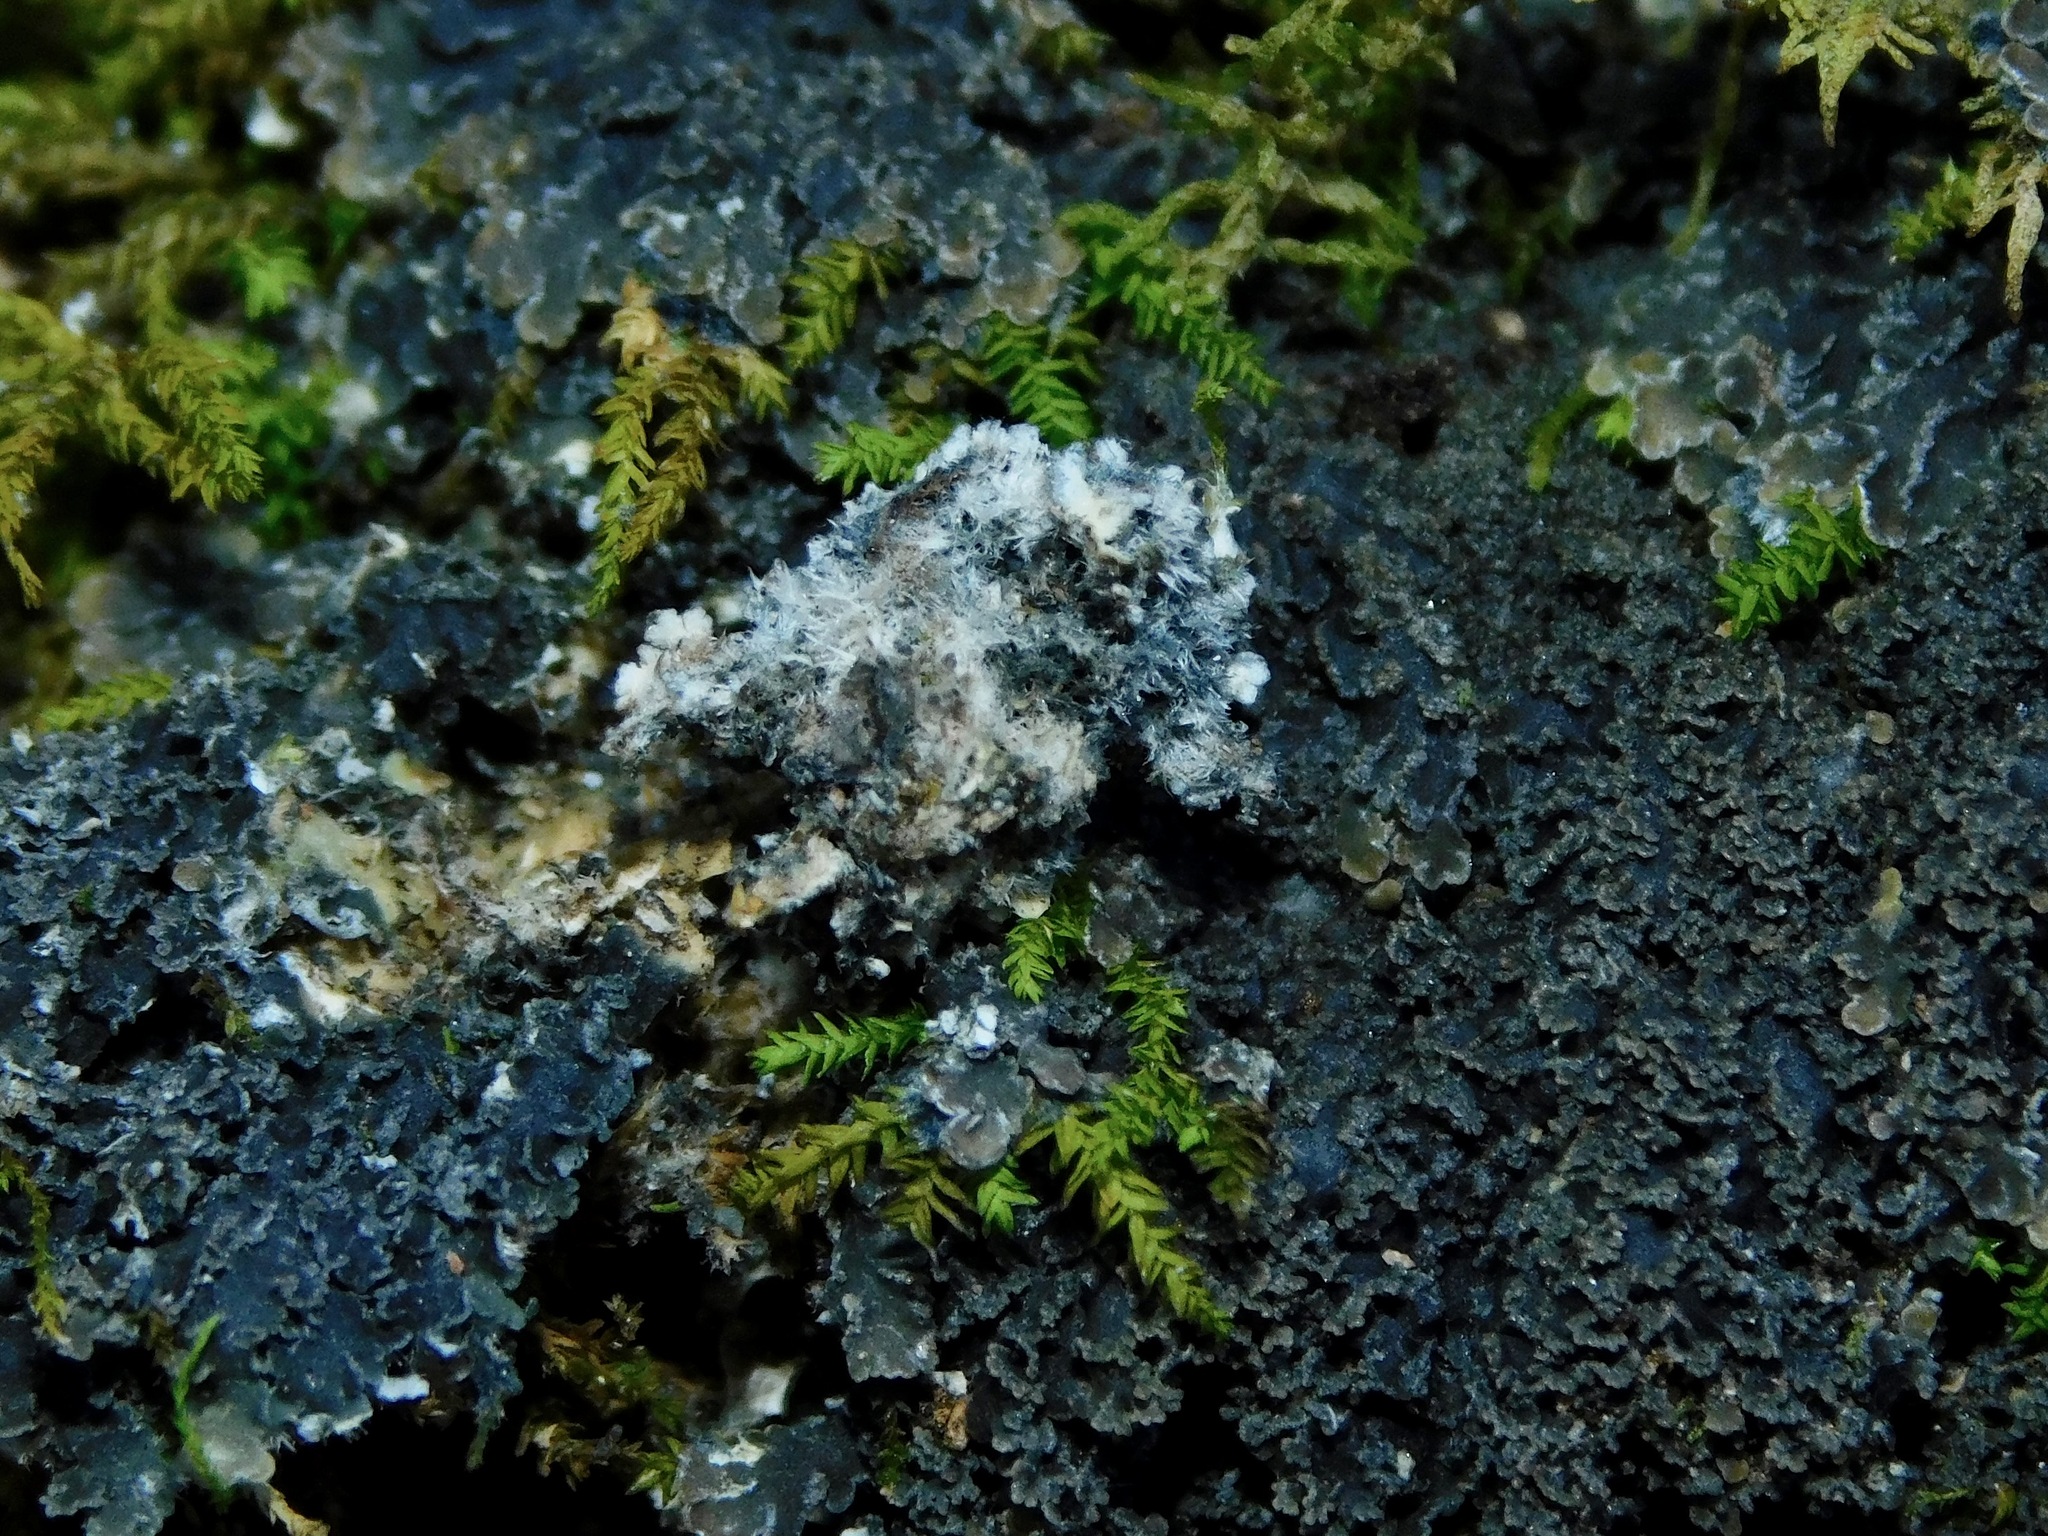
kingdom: Fungi
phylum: Ascomycota
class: Lecanoromycetes
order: Peltigerales
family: Pannariaceae
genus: Pannaria
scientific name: Pannaria conoplea
